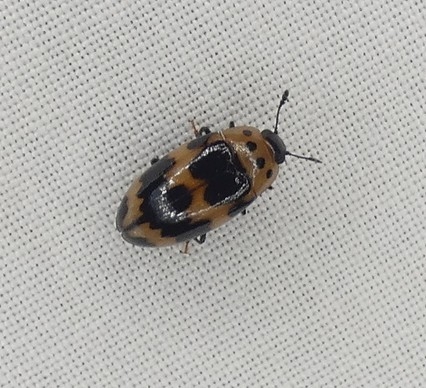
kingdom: Animalia
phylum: Arthropoda
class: Insecta
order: Coleoptera
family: Erotylidae
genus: Ischyrus
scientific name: Ischyrus quadripunctatus
